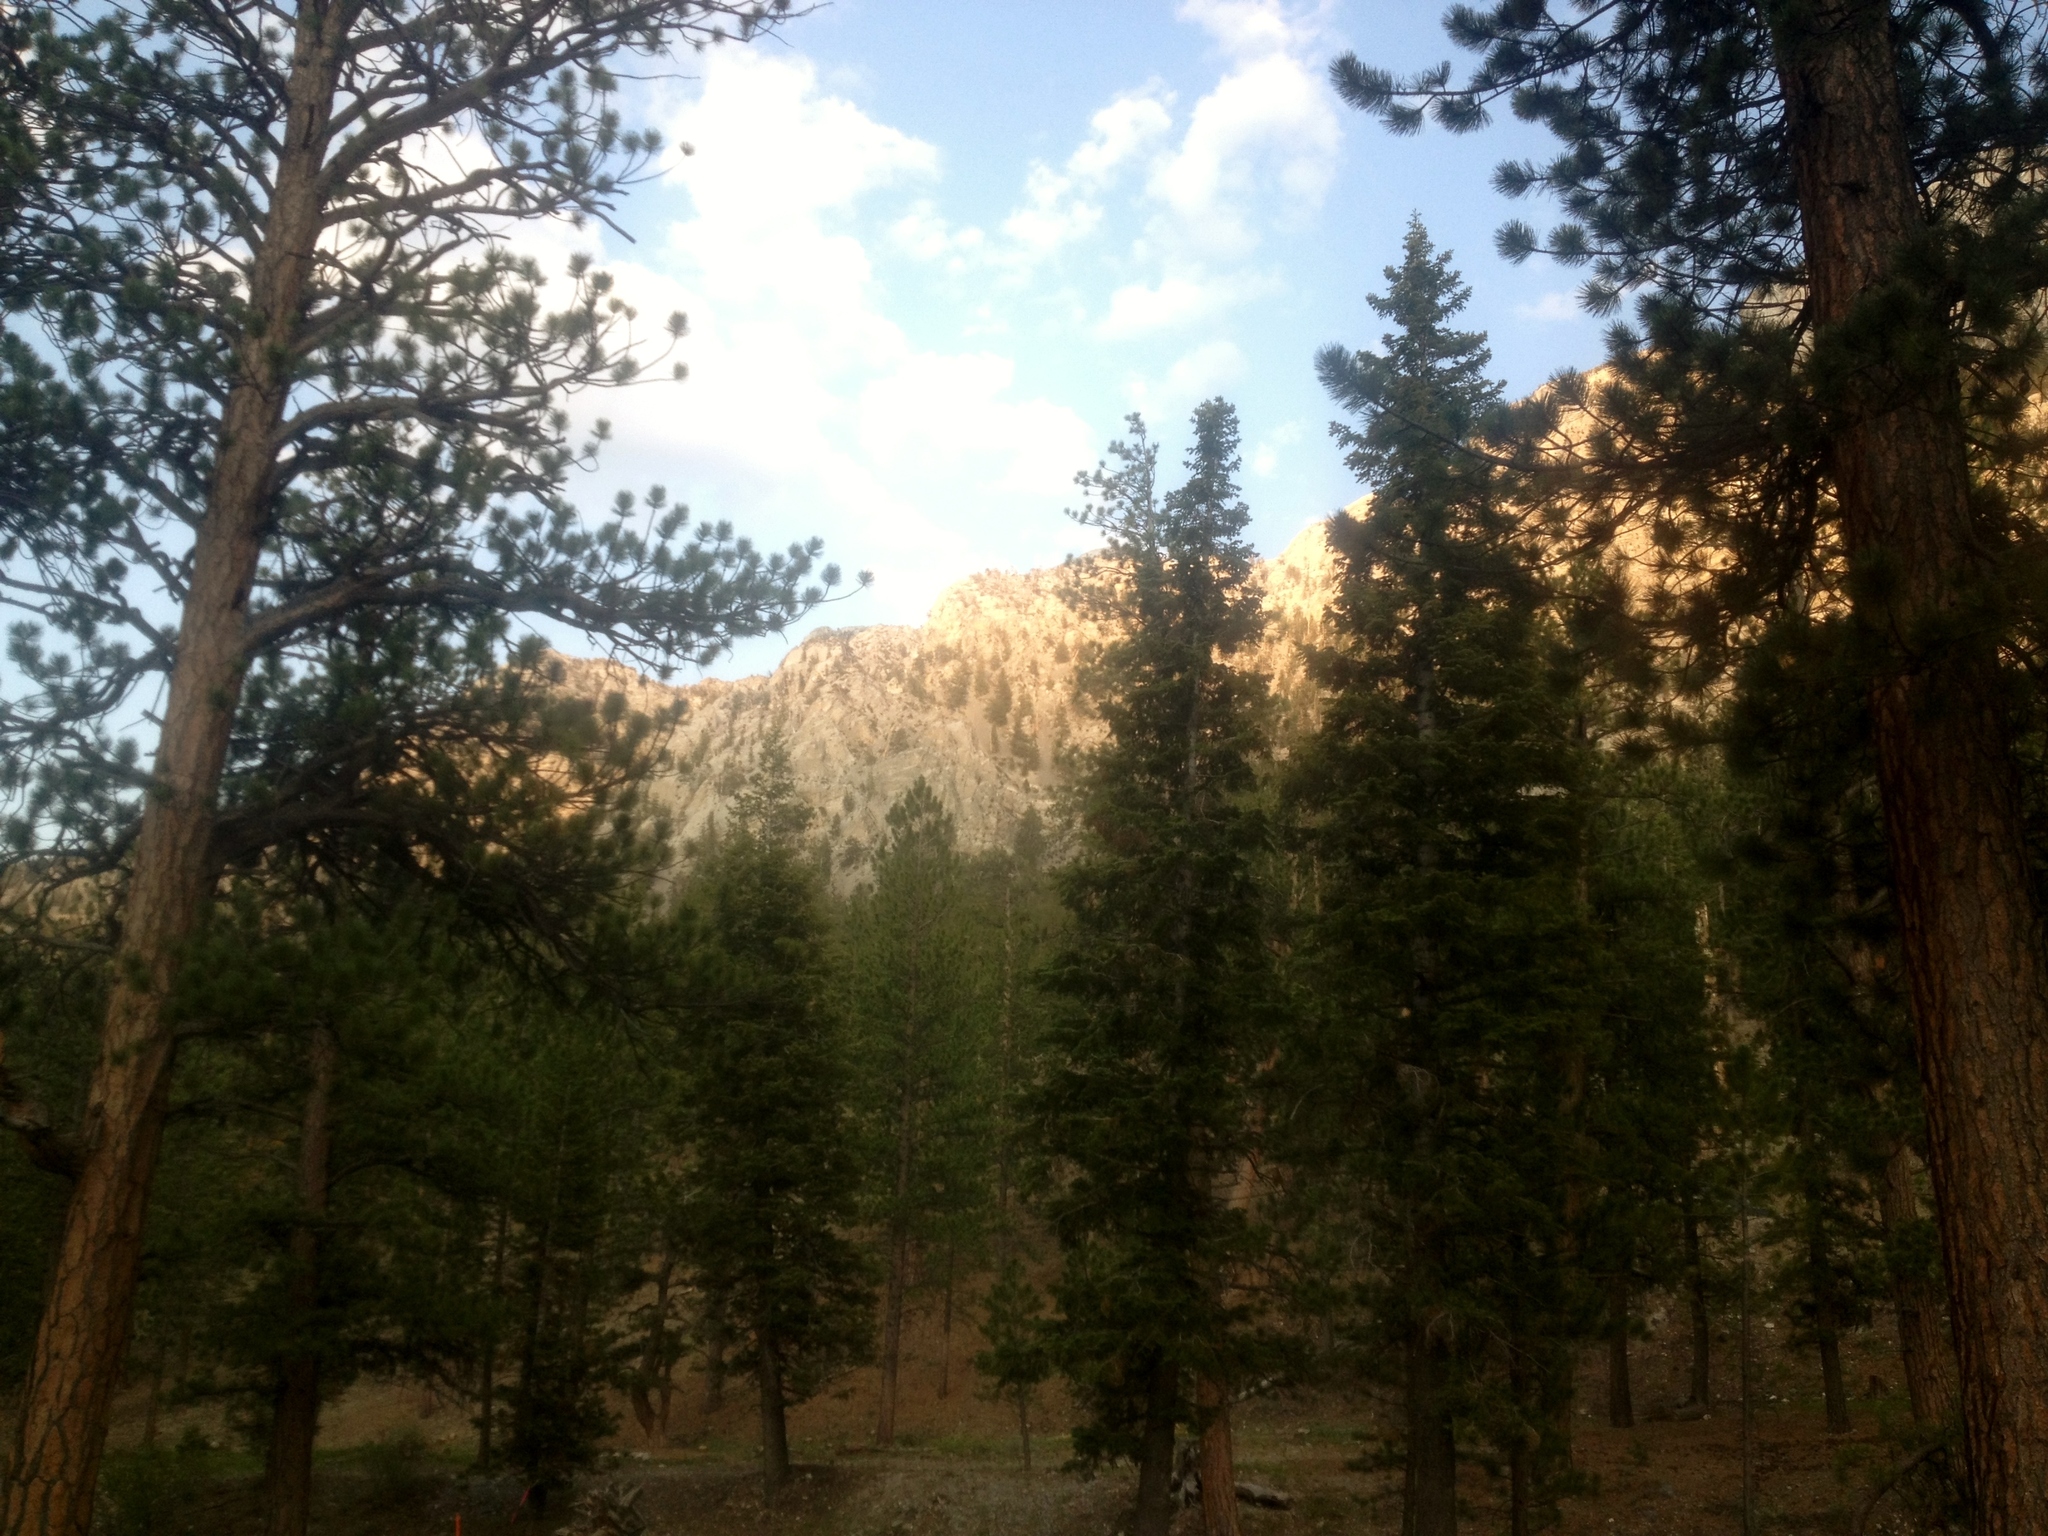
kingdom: Plantae
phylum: Tracheophyta
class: Pinopsida
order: Pinales
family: Pinaceae
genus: Pinus
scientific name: Pinus ponderosa
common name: Western yellow-pine
